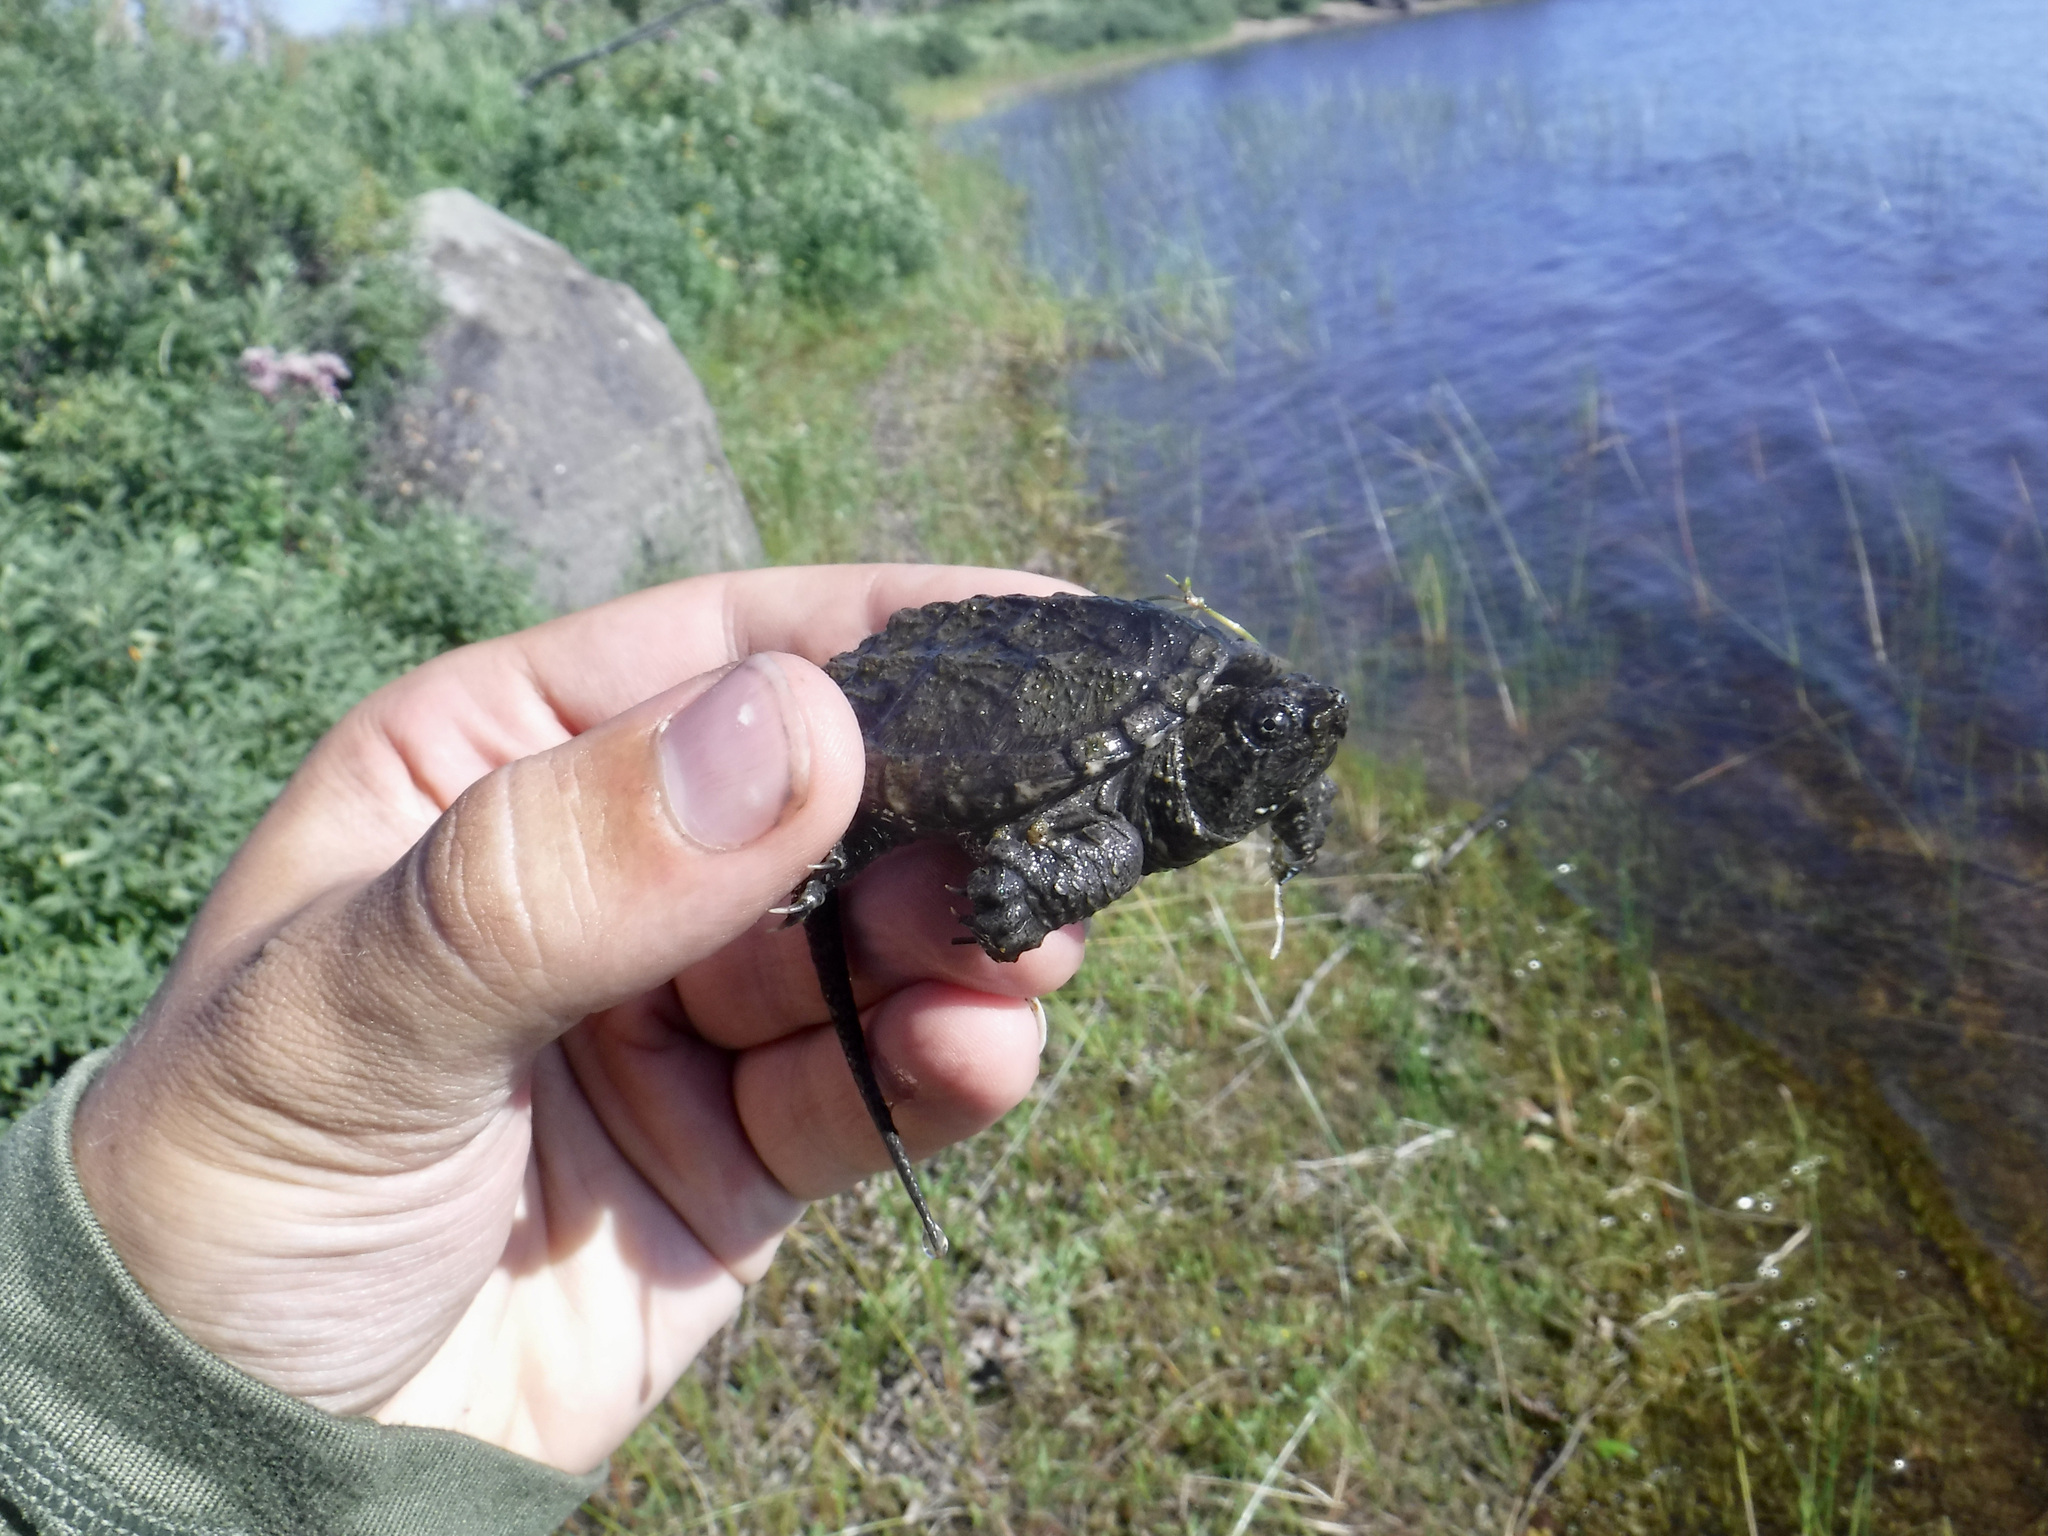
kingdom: Animalia
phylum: Chordata
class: Testudines
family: Chelydridae
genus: Chelydra
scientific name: Chelydra serpentina
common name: Common snapping turtle
